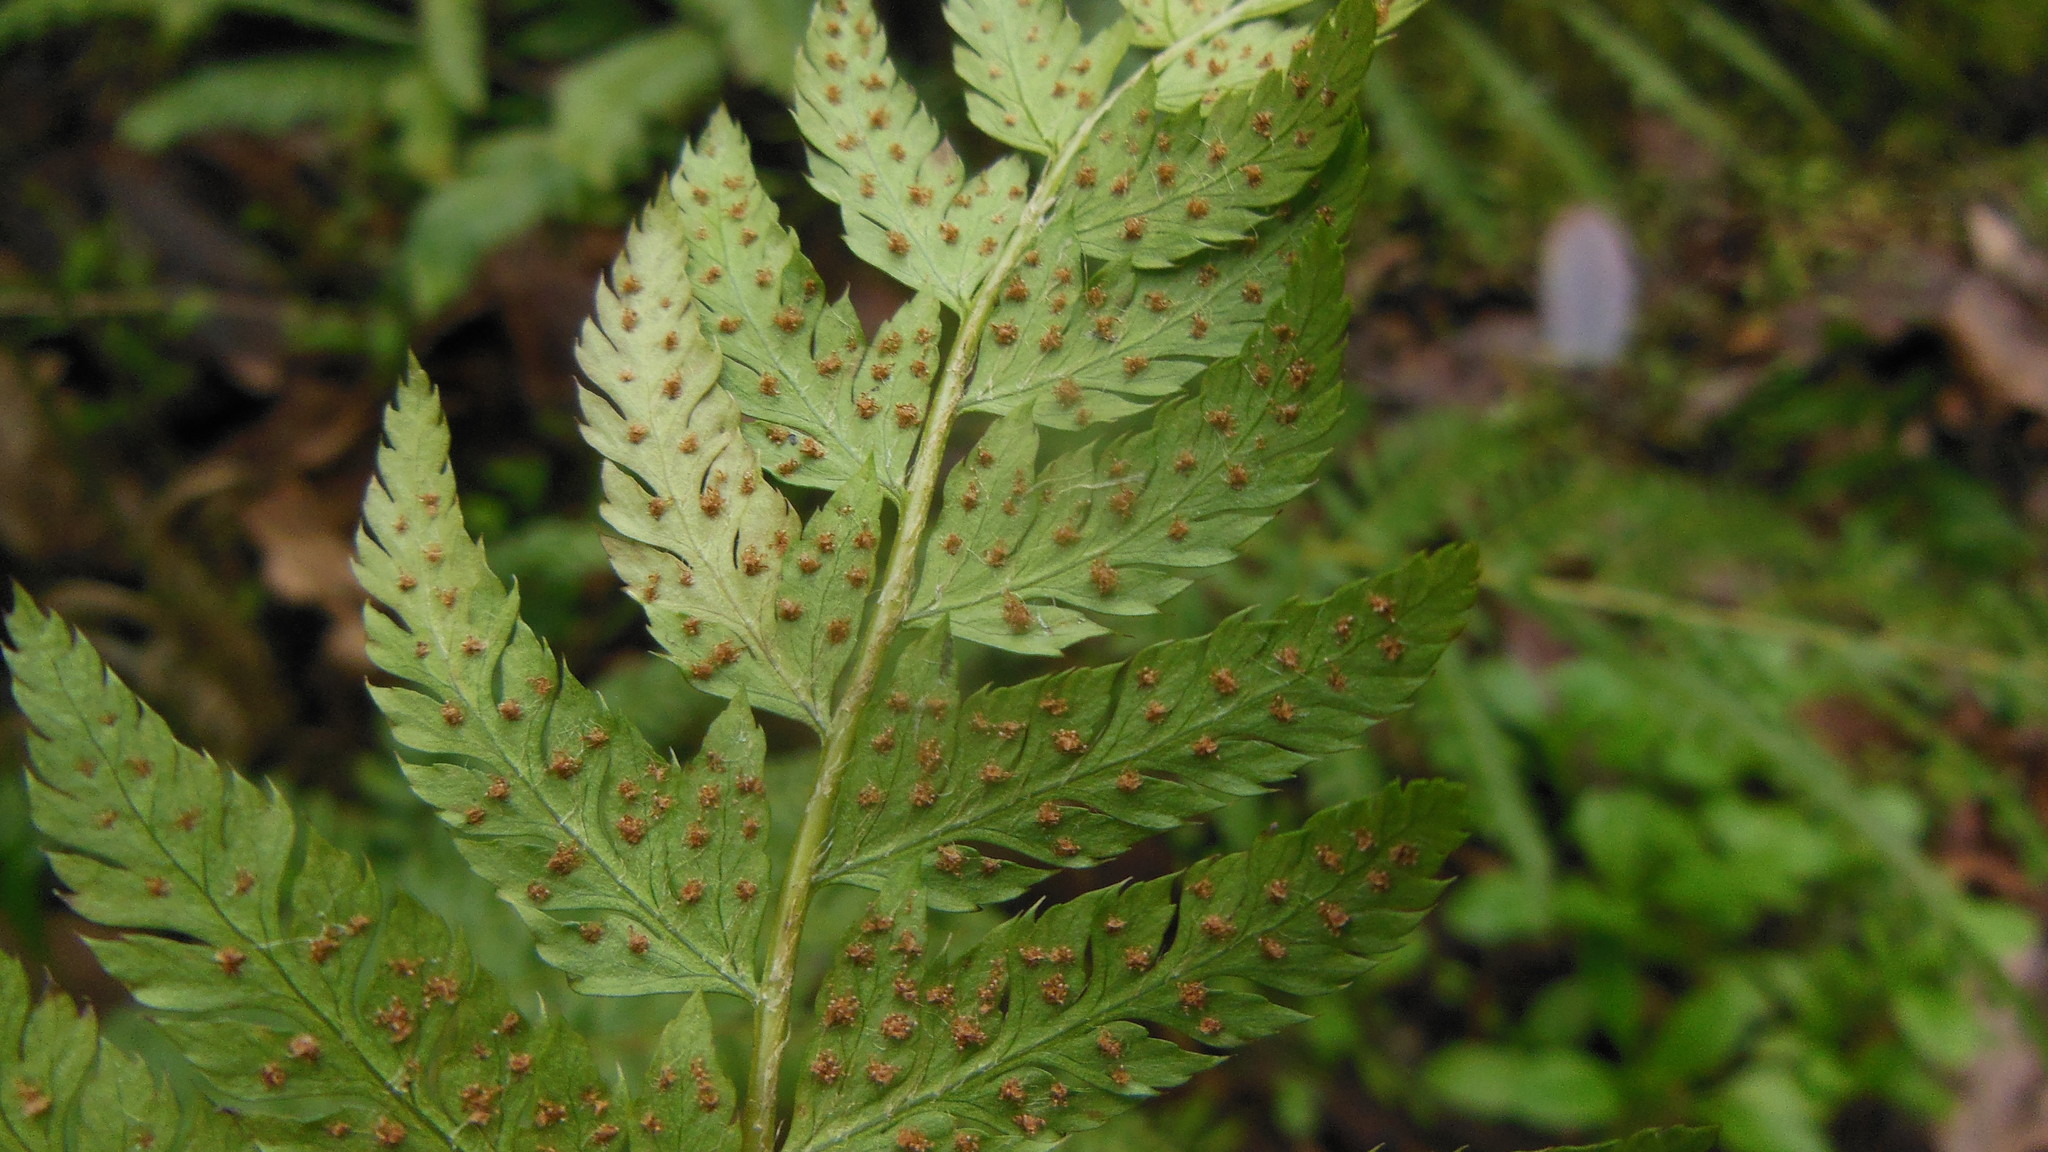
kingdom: Plantae
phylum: Tracheophyta
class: Polypodiopsida
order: Polypodiales
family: Dryopteridaceae
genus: Polystichum
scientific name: Polystichum dudleyi
